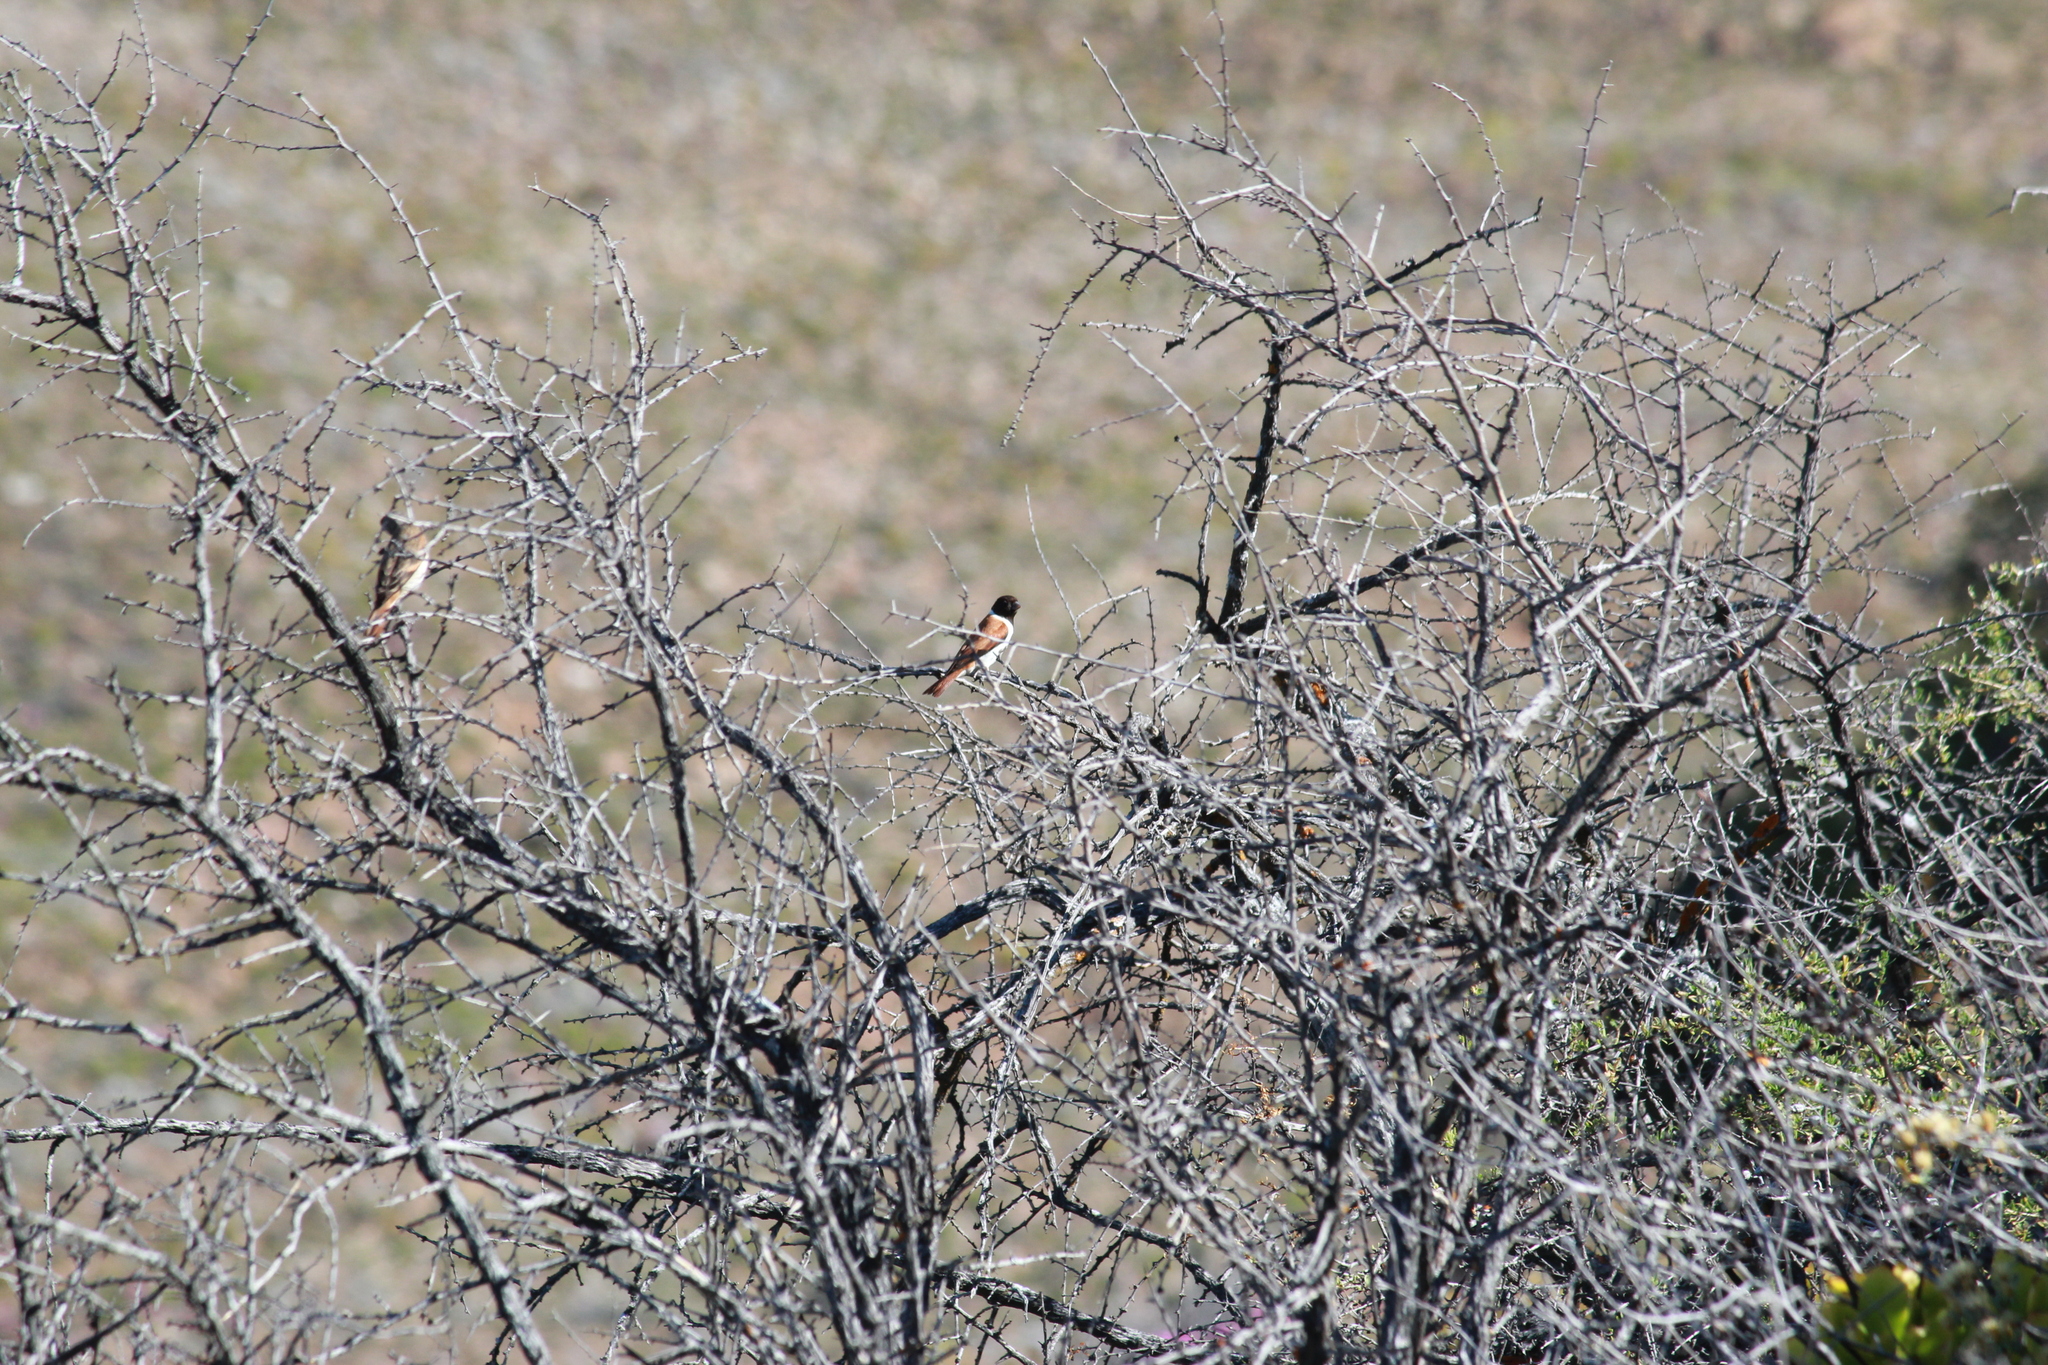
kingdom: Animalia
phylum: Chordata
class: Aves
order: Passeriformes
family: Fringillidae
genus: Serinus
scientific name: Serinus alario
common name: Black-headed canary
